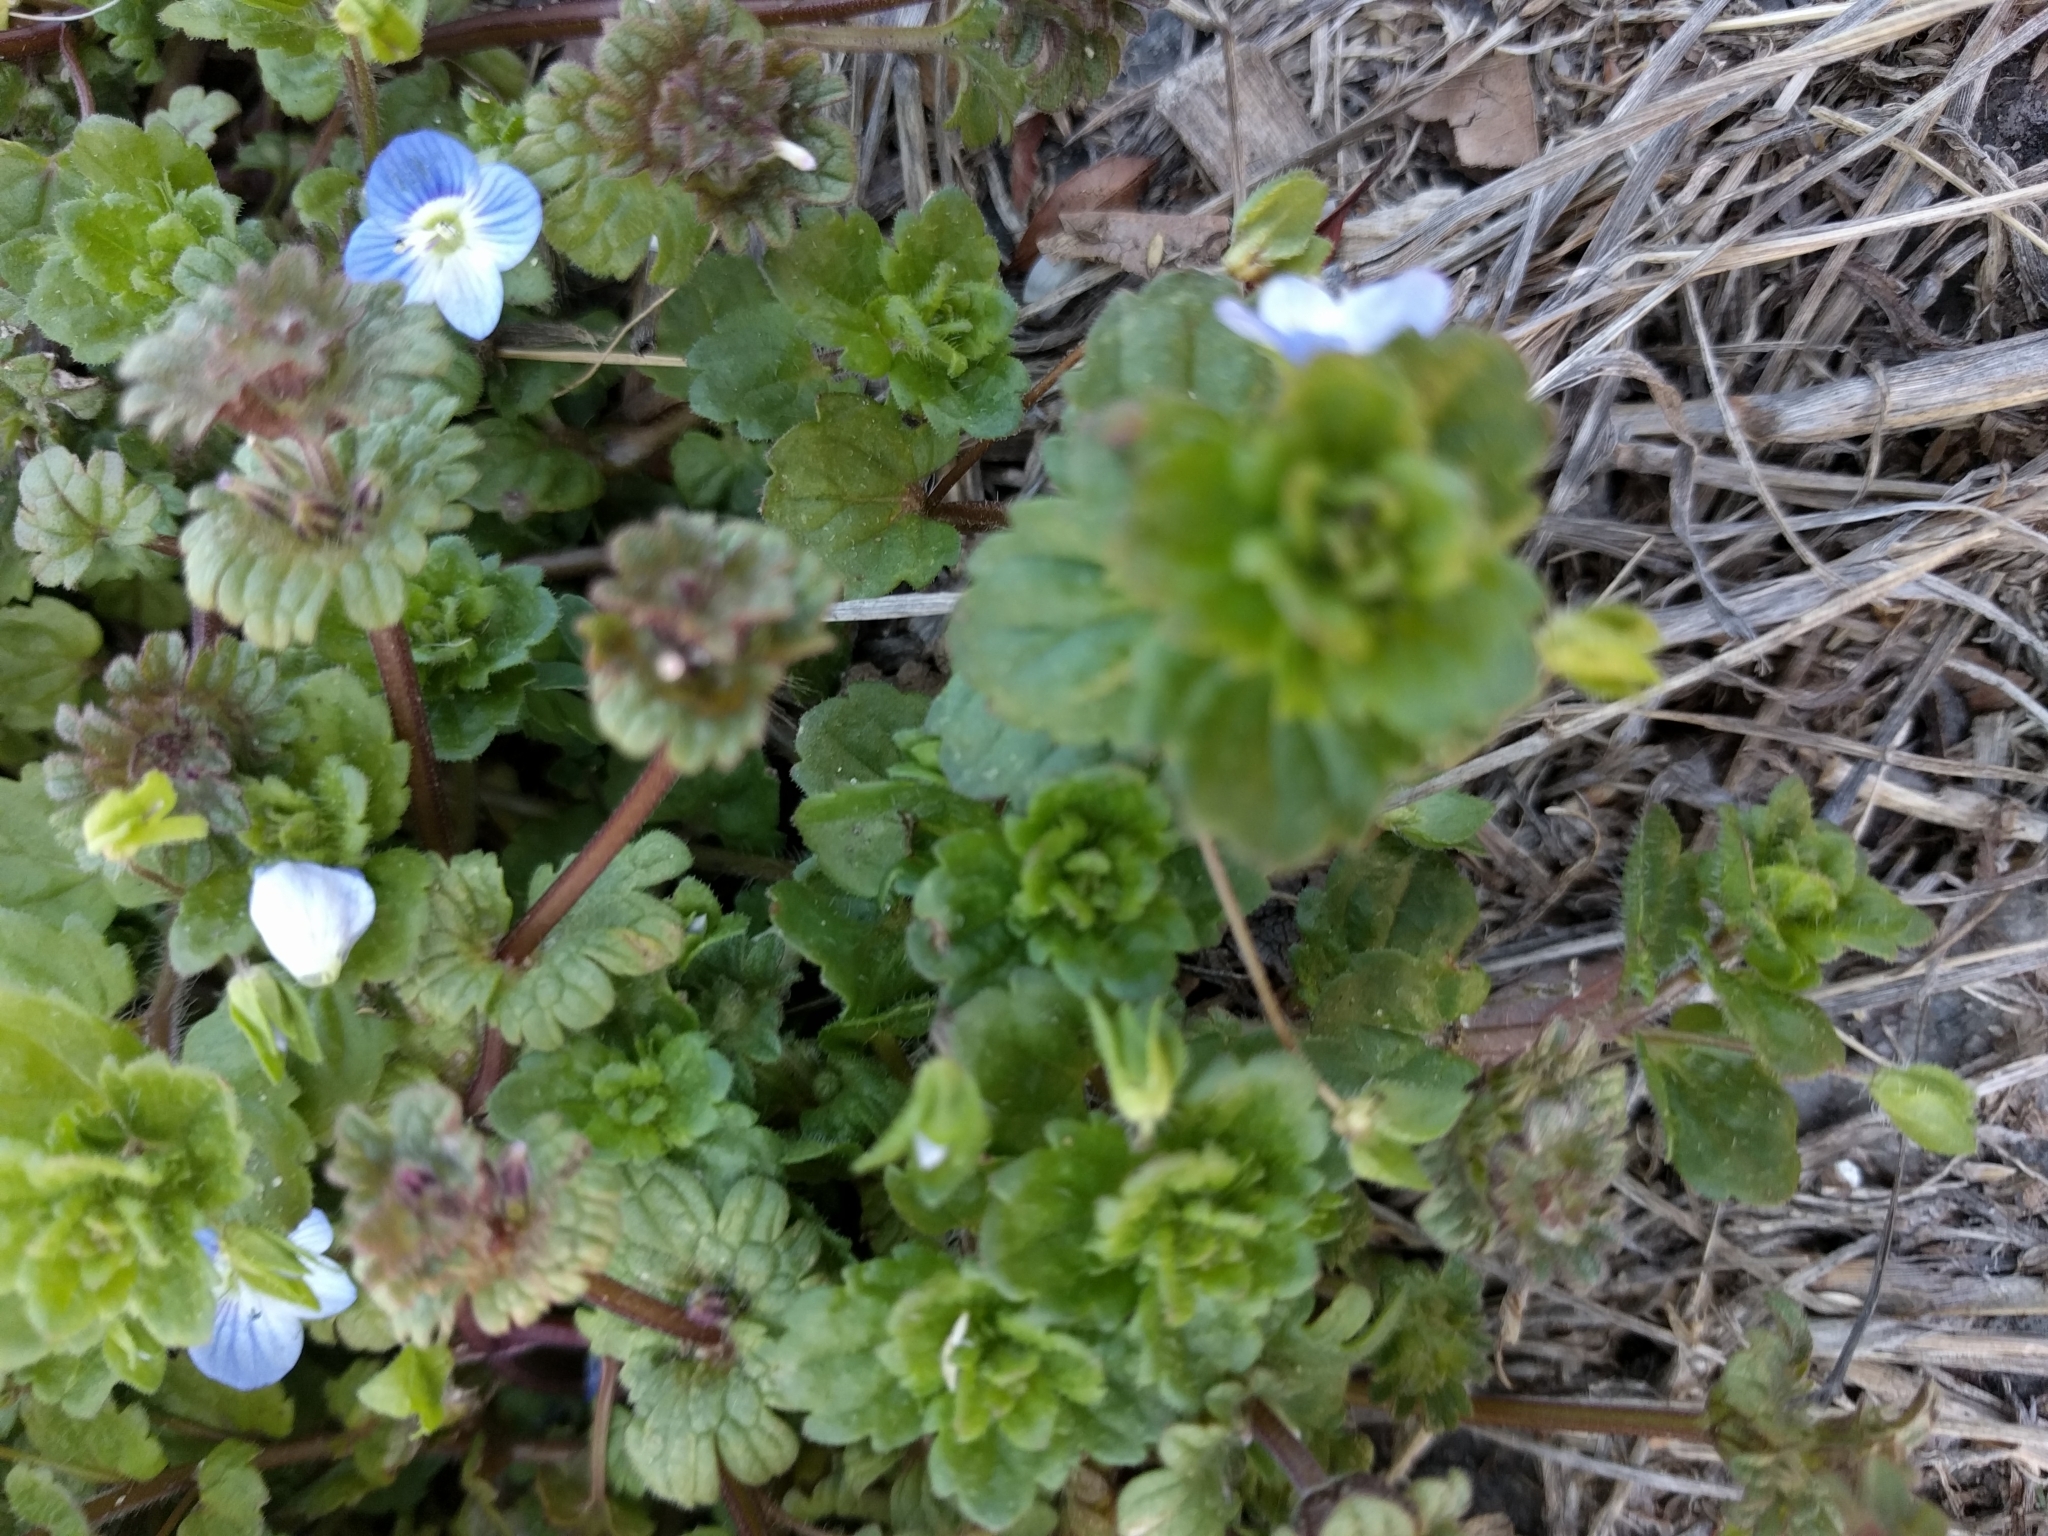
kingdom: Plantae
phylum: Tracheophyta
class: Magnoliopsida
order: Lamiales
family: Lamiaceae
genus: Lamium
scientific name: Lamium amplexicaule
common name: Henbit dead-nettle
